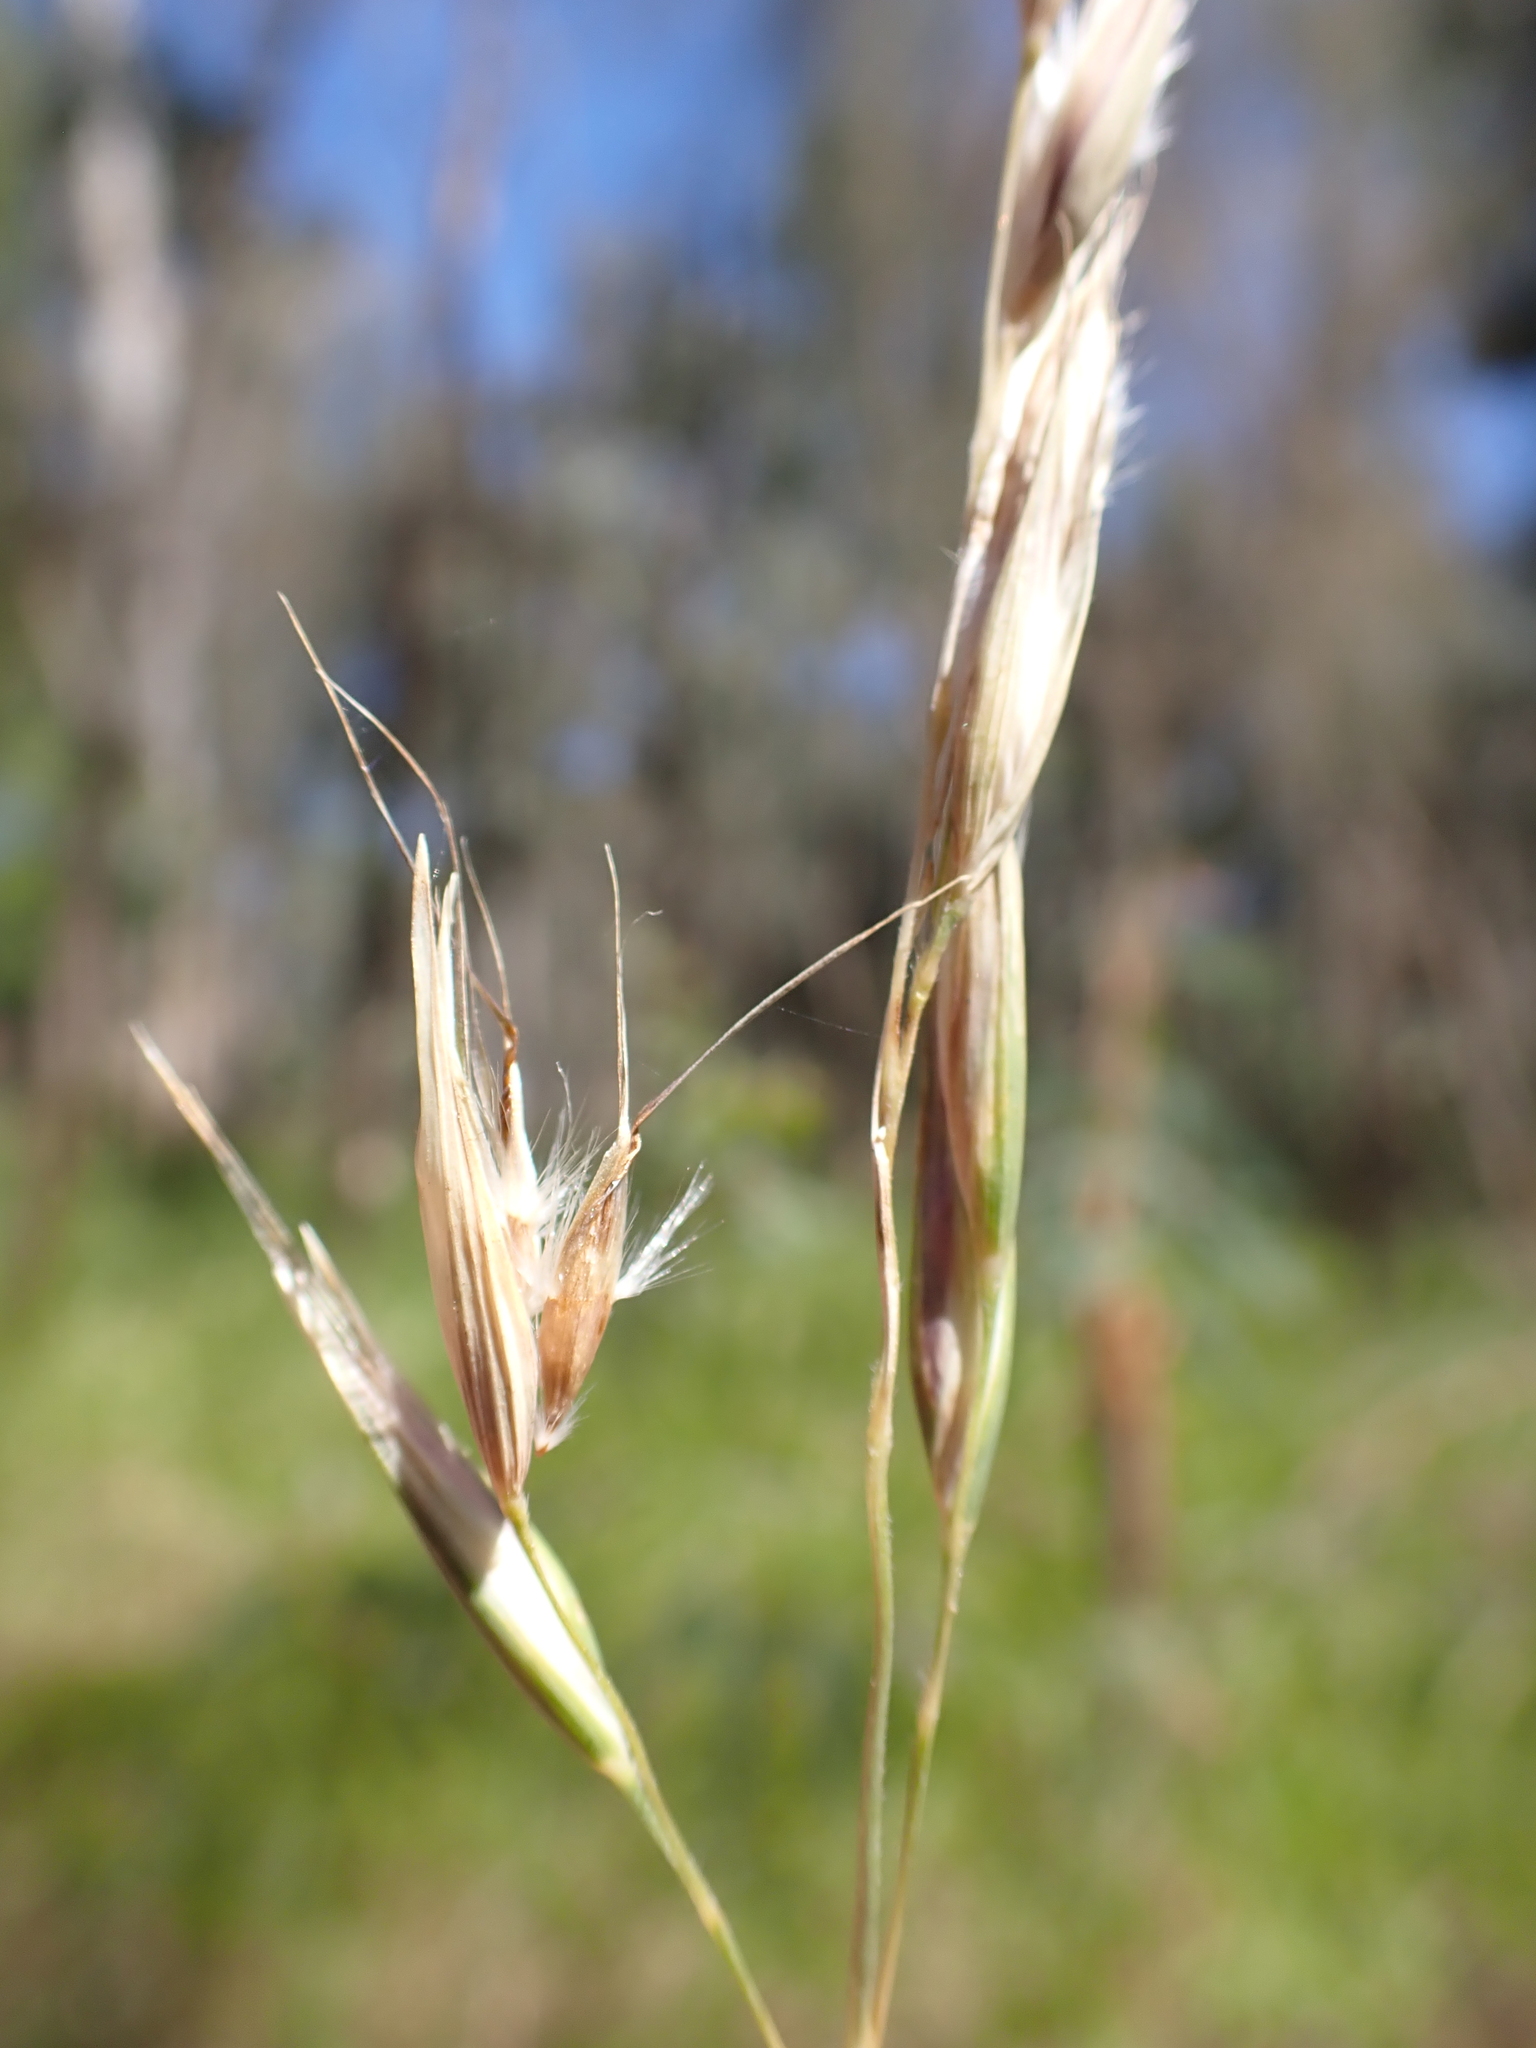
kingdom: Plantae
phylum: Tracheophyta
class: Liliopsida
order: Poales
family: Poaceae
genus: Rytidosperma
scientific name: Rytidosperma laeve
